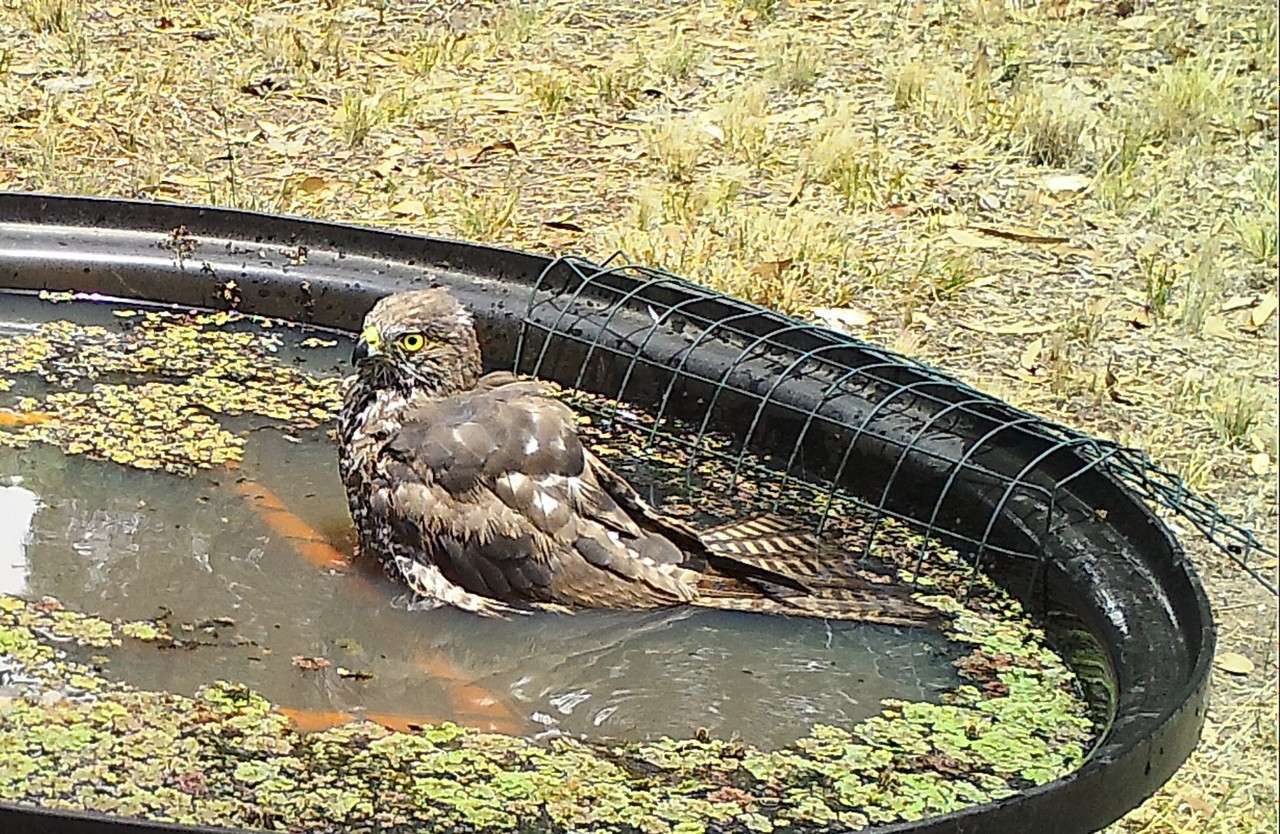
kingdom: Animalia
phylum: Chordata
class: Aves
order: Accipitriformes
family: Accipitridae
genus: Accipiter
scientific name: Accipiter fasciatus
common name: Brown goshawk
